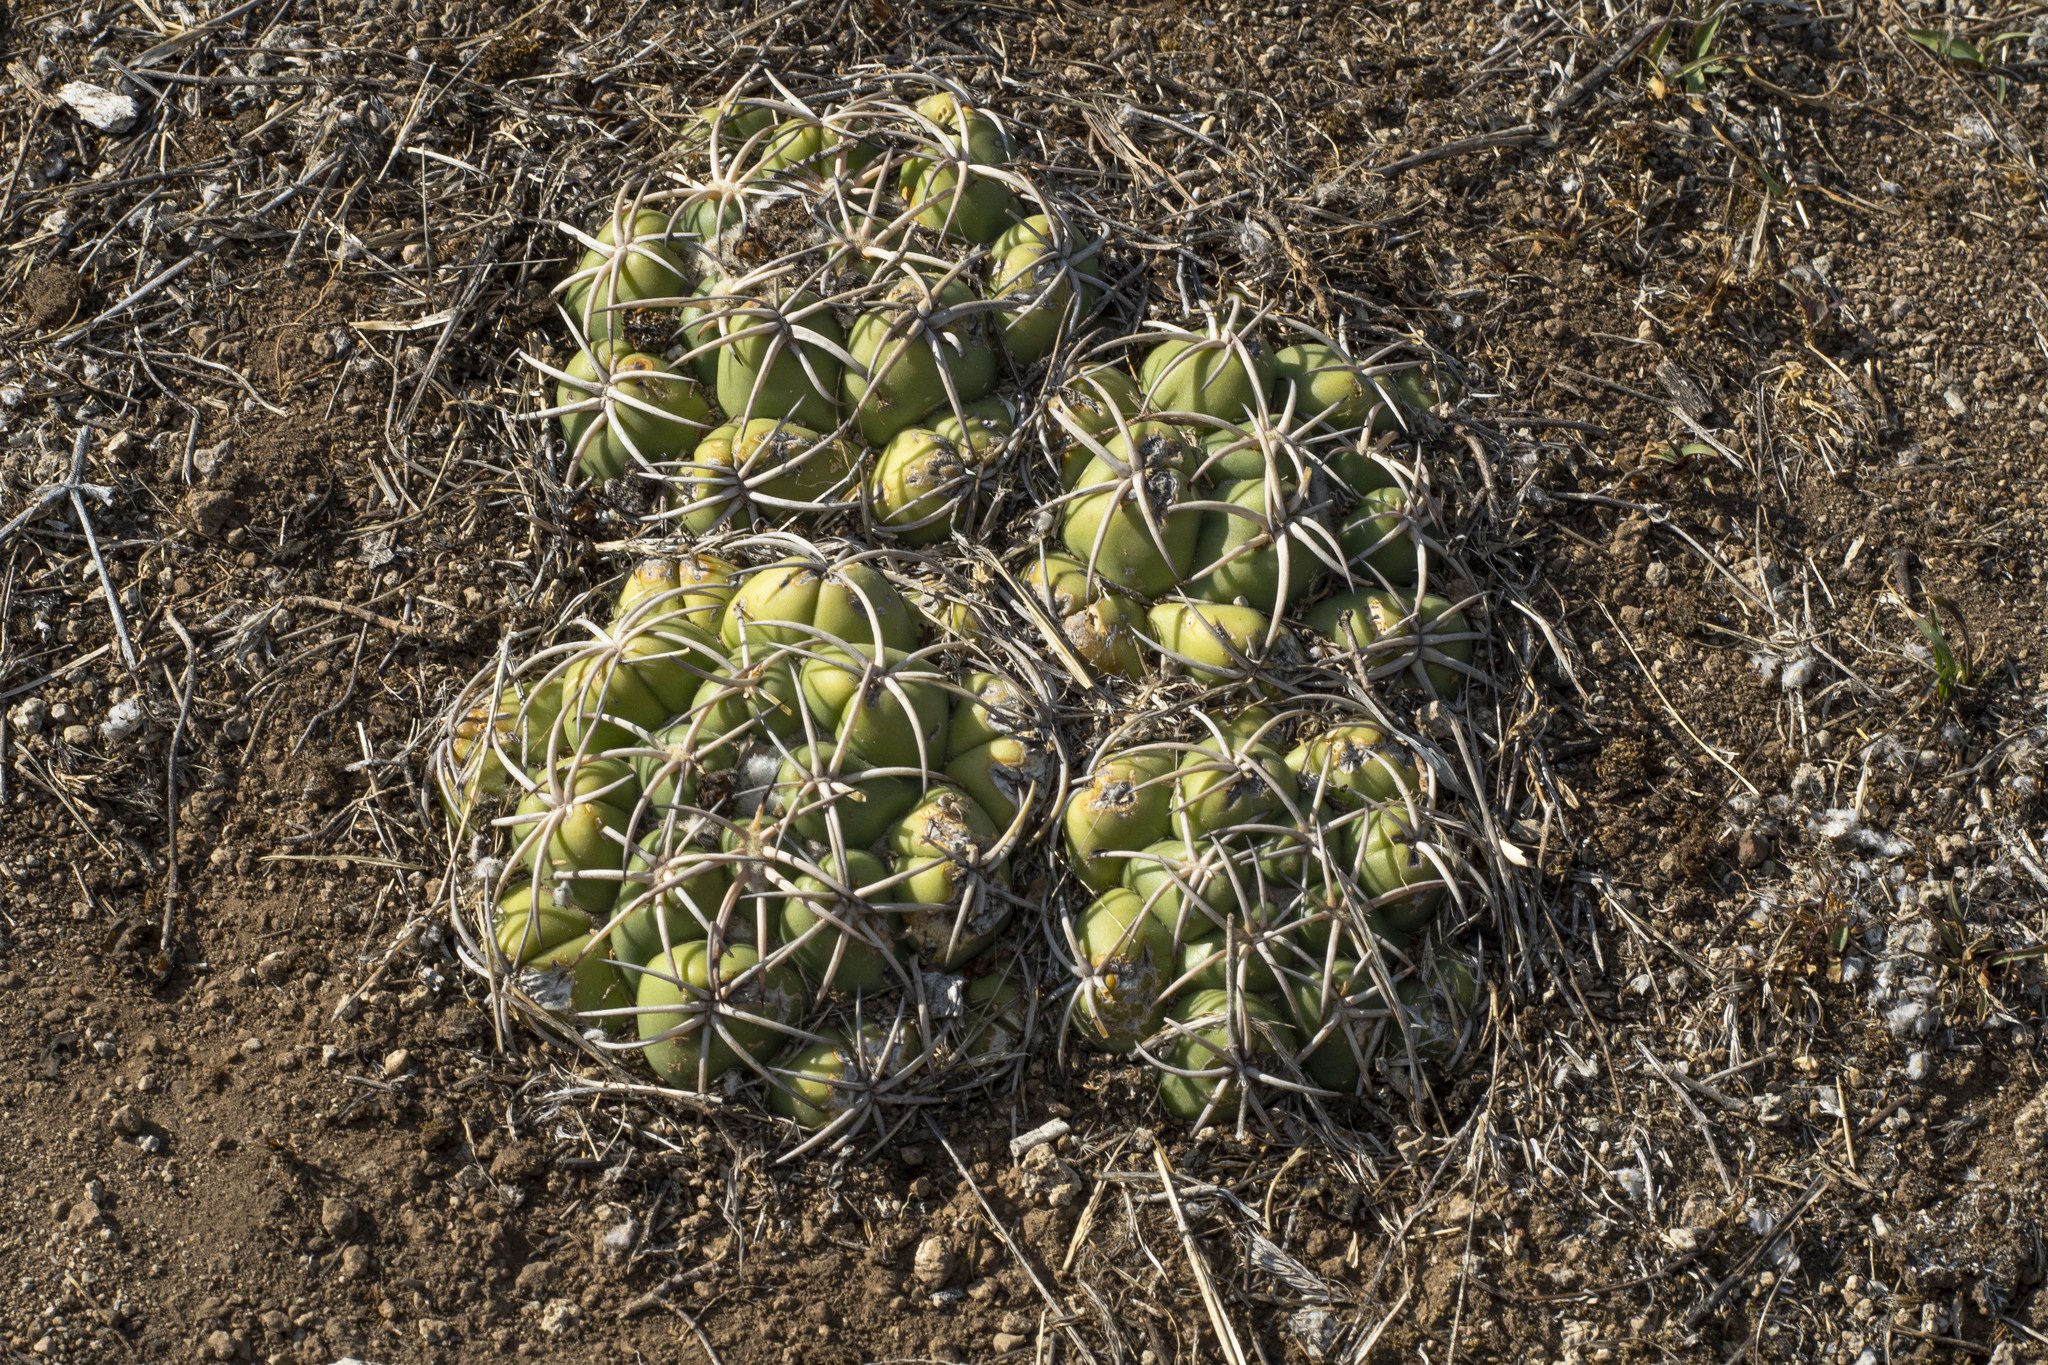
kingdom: Plantae
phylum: Tracheophyta
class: Magnoliopsida
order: Caryophyllales
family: Cactaceae
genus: Coryphantha
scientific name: Coryphantha elephantidens
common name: Elephant's tooth
